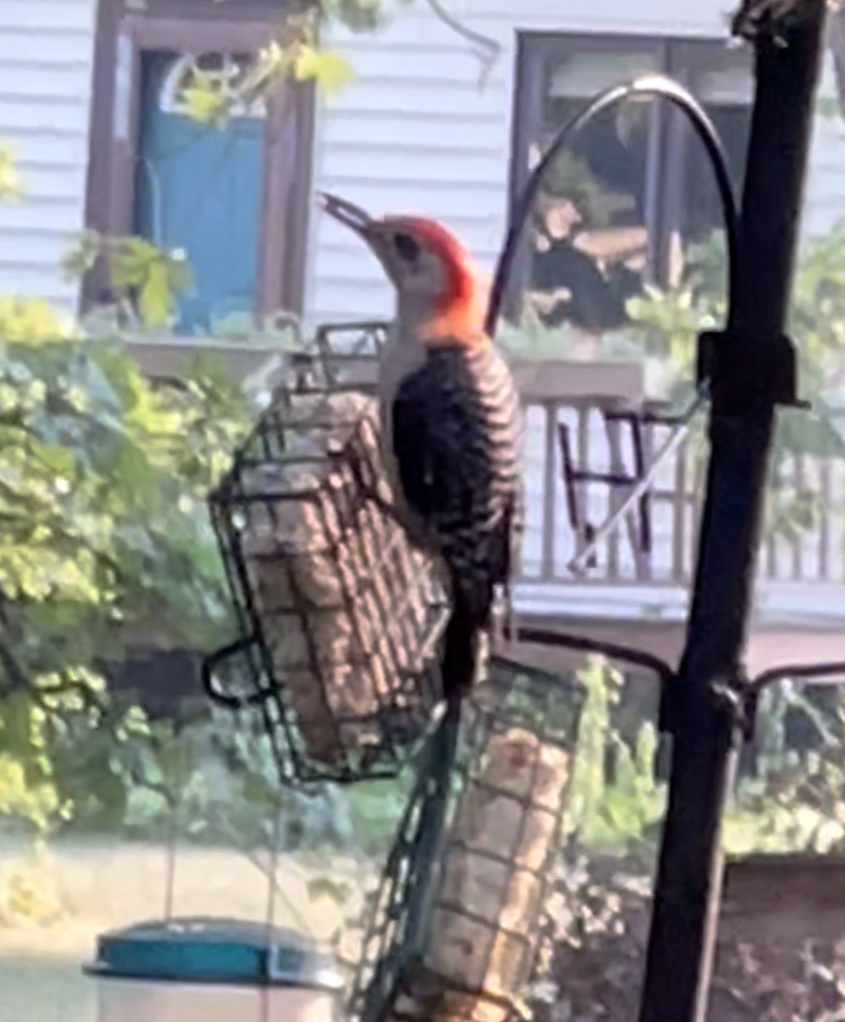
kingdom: Animalia
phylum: Chordata
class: Aves
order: Piciformes
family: Picidae
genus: Melanerpes
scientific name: Melanerpes carolinus
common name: Red-bellied woodpecker
